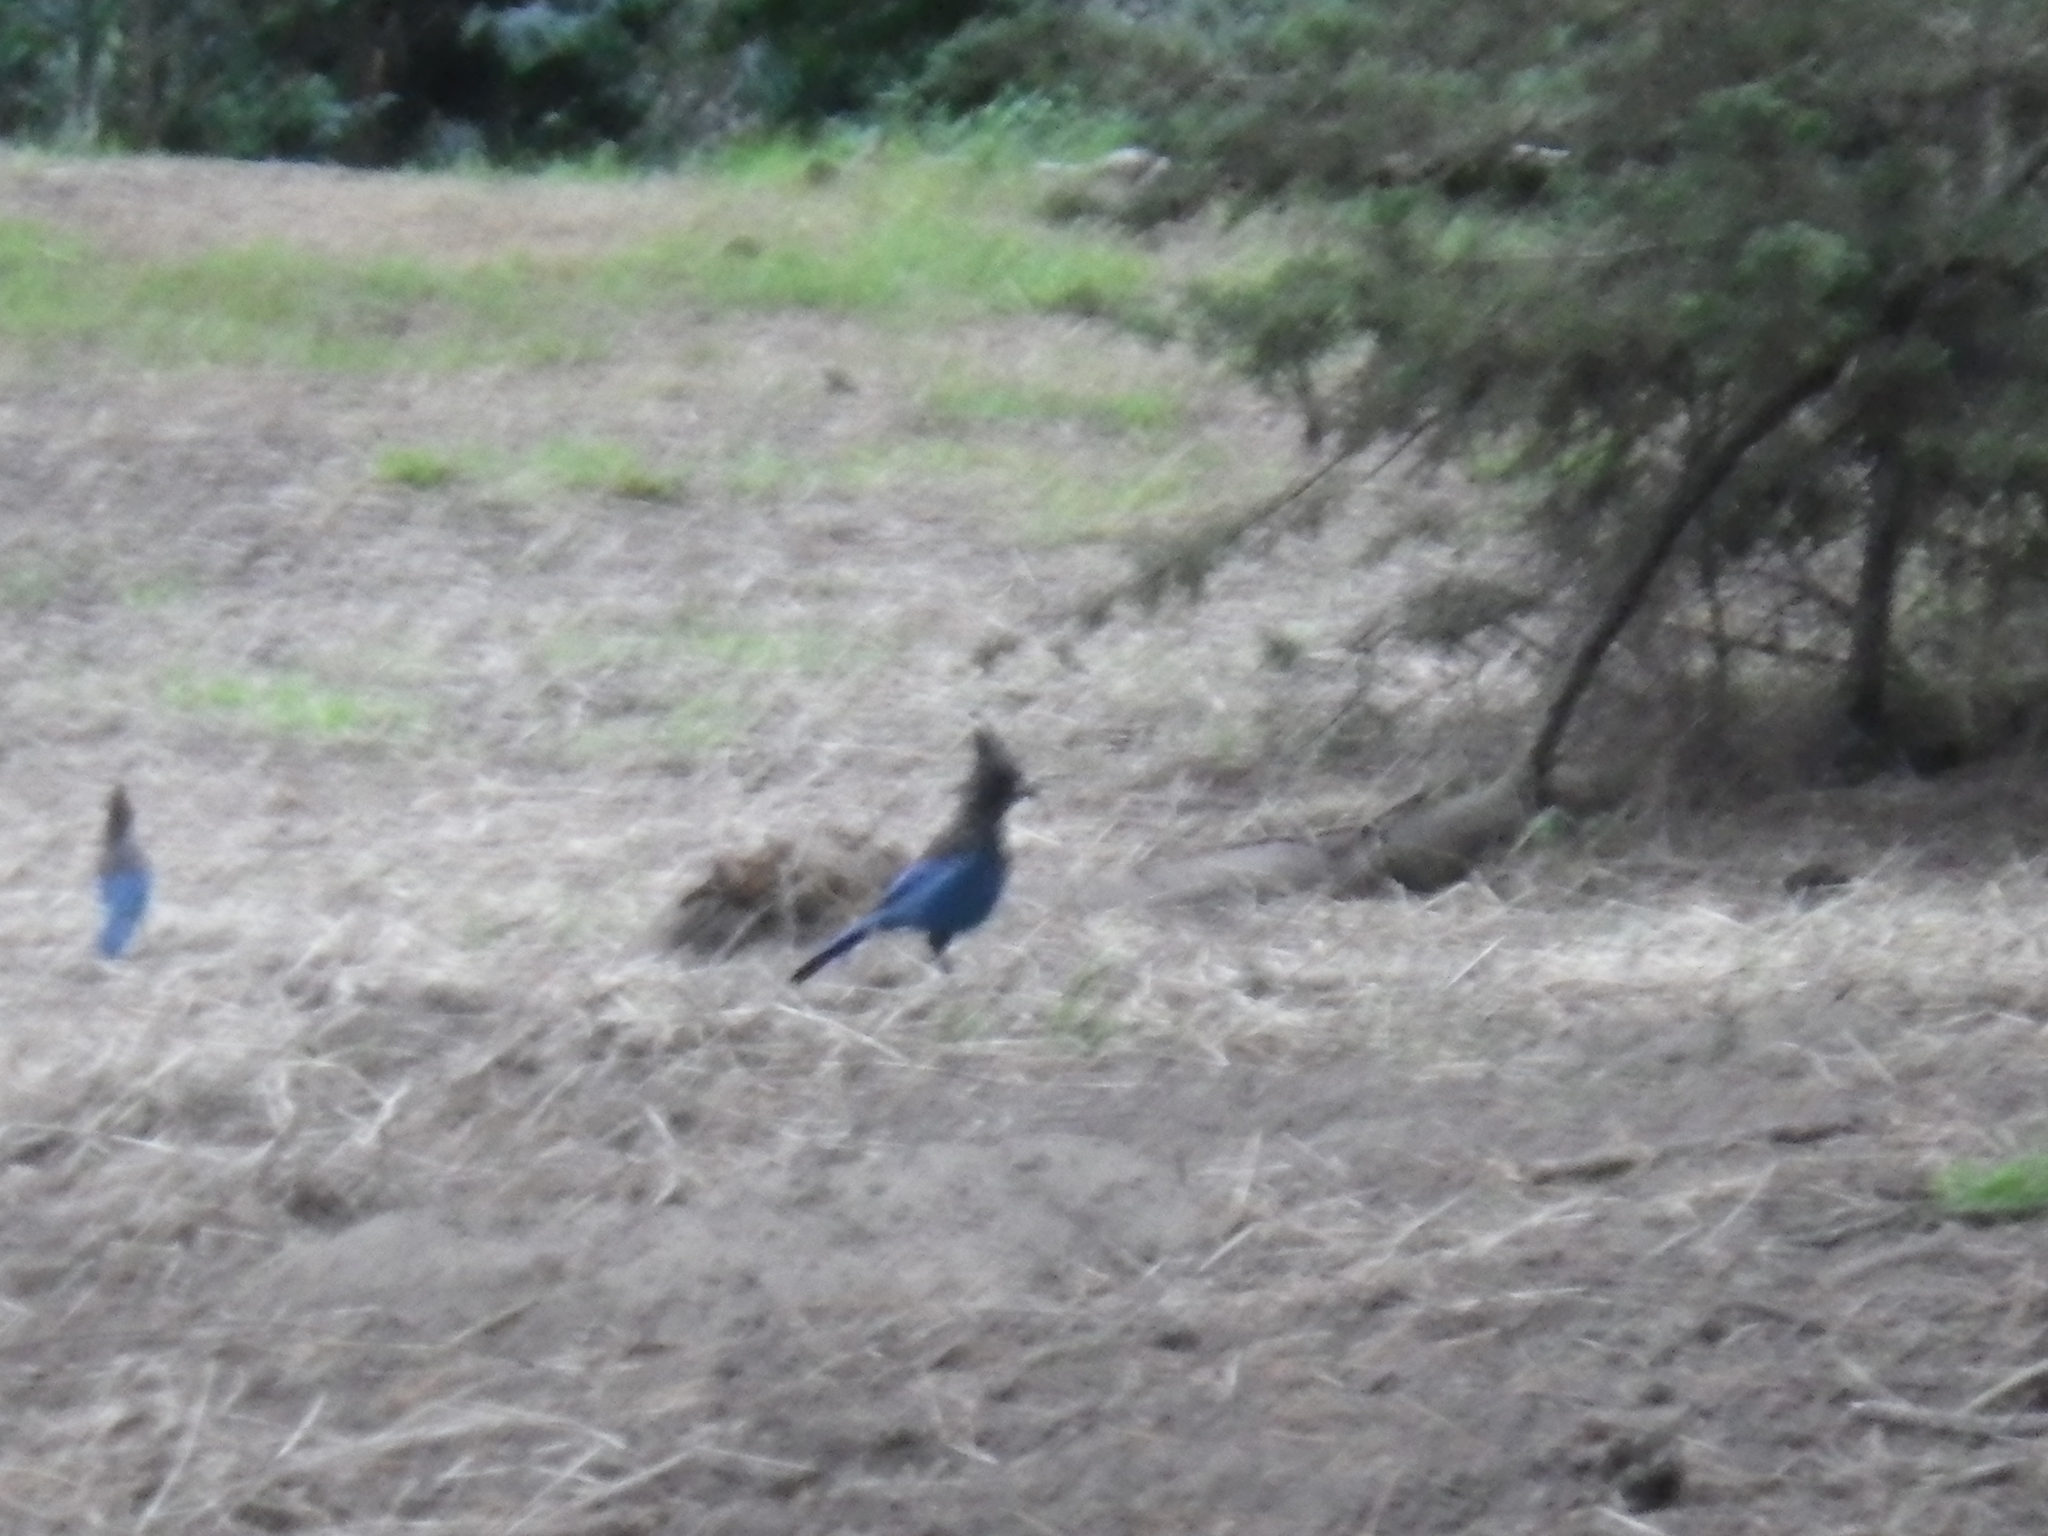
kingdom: Animalia
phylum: Chordata
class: Aves
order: Passeriformes
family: Corvidae
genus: Cyanocitta
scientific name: Cyanocitta stelleri
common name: Steller's jay
